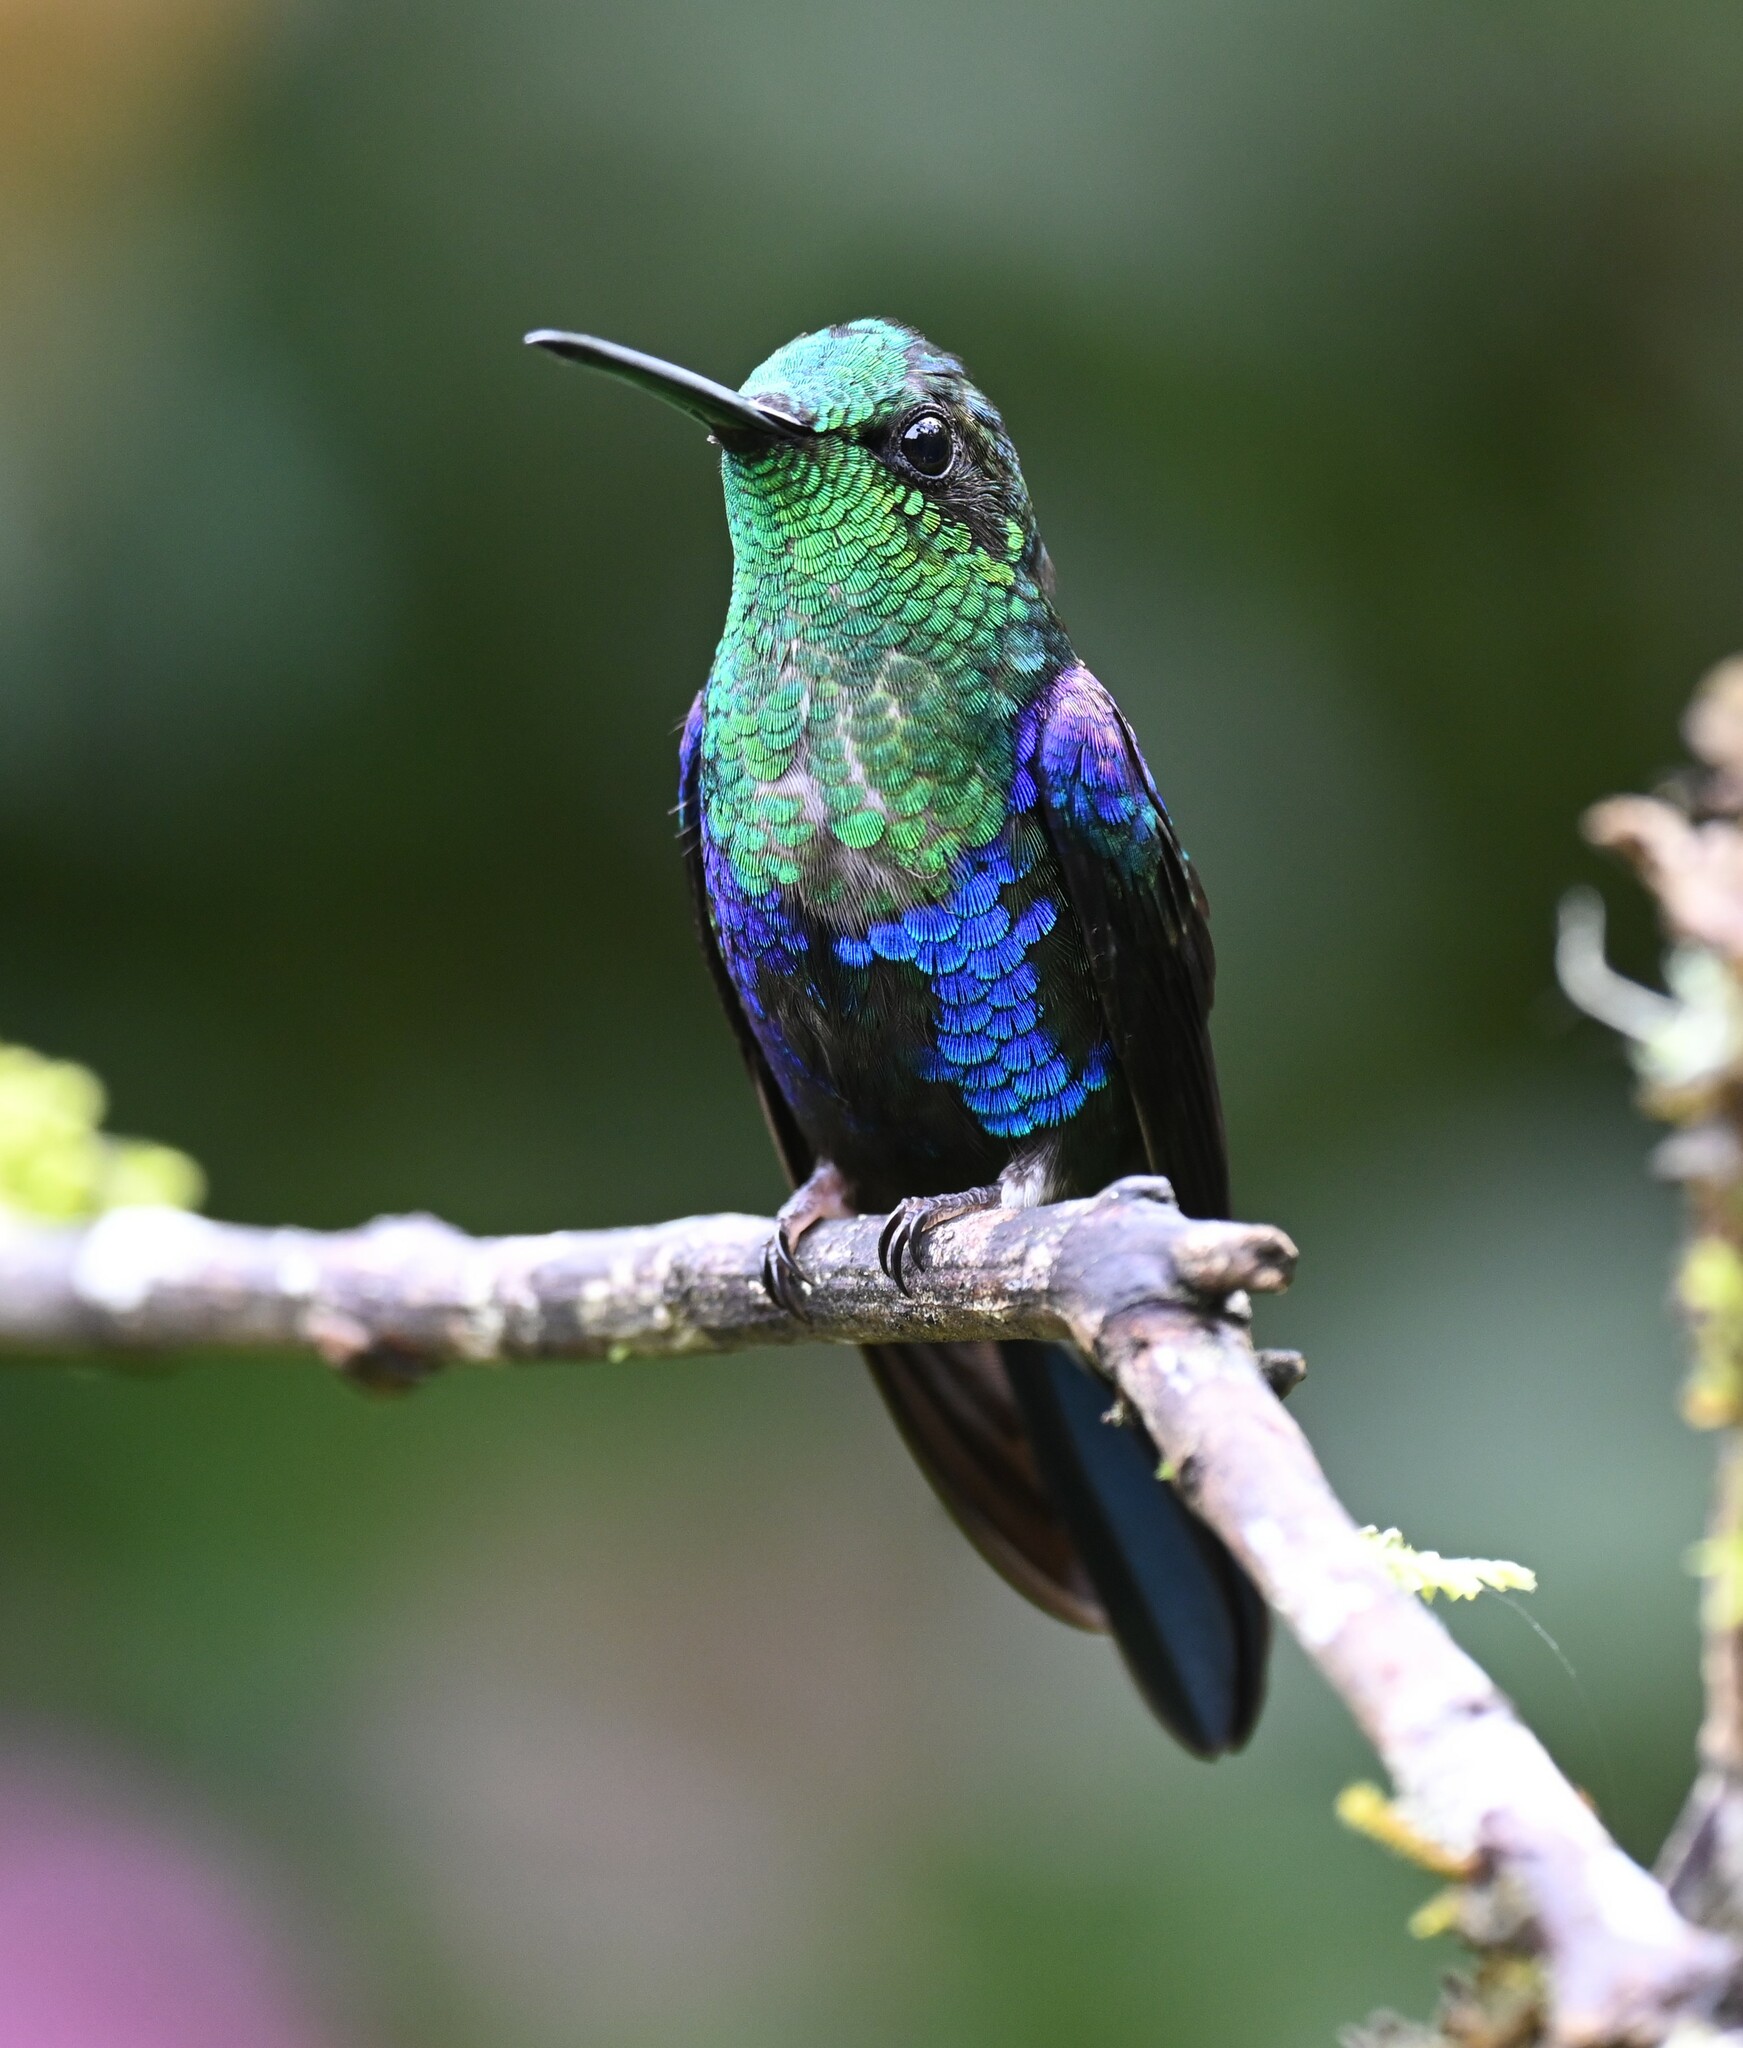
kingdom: Animalia
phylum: Chordata
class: Aves
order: Apodiformes
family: Trochilidae
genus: Thalurania
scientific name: Thalurania colombica
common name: Crowned woodnymph
